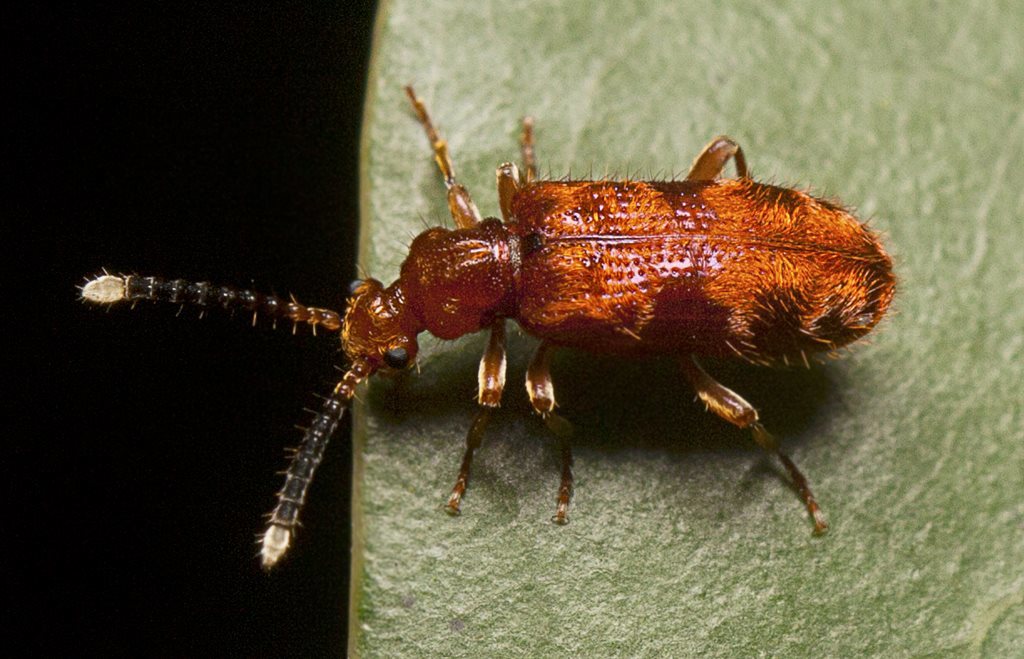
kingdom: Animalia
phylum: Arthropoda
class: Insecta
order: Coleoptera
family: Anthicidae
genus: Lemodes
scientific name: Lemodes
